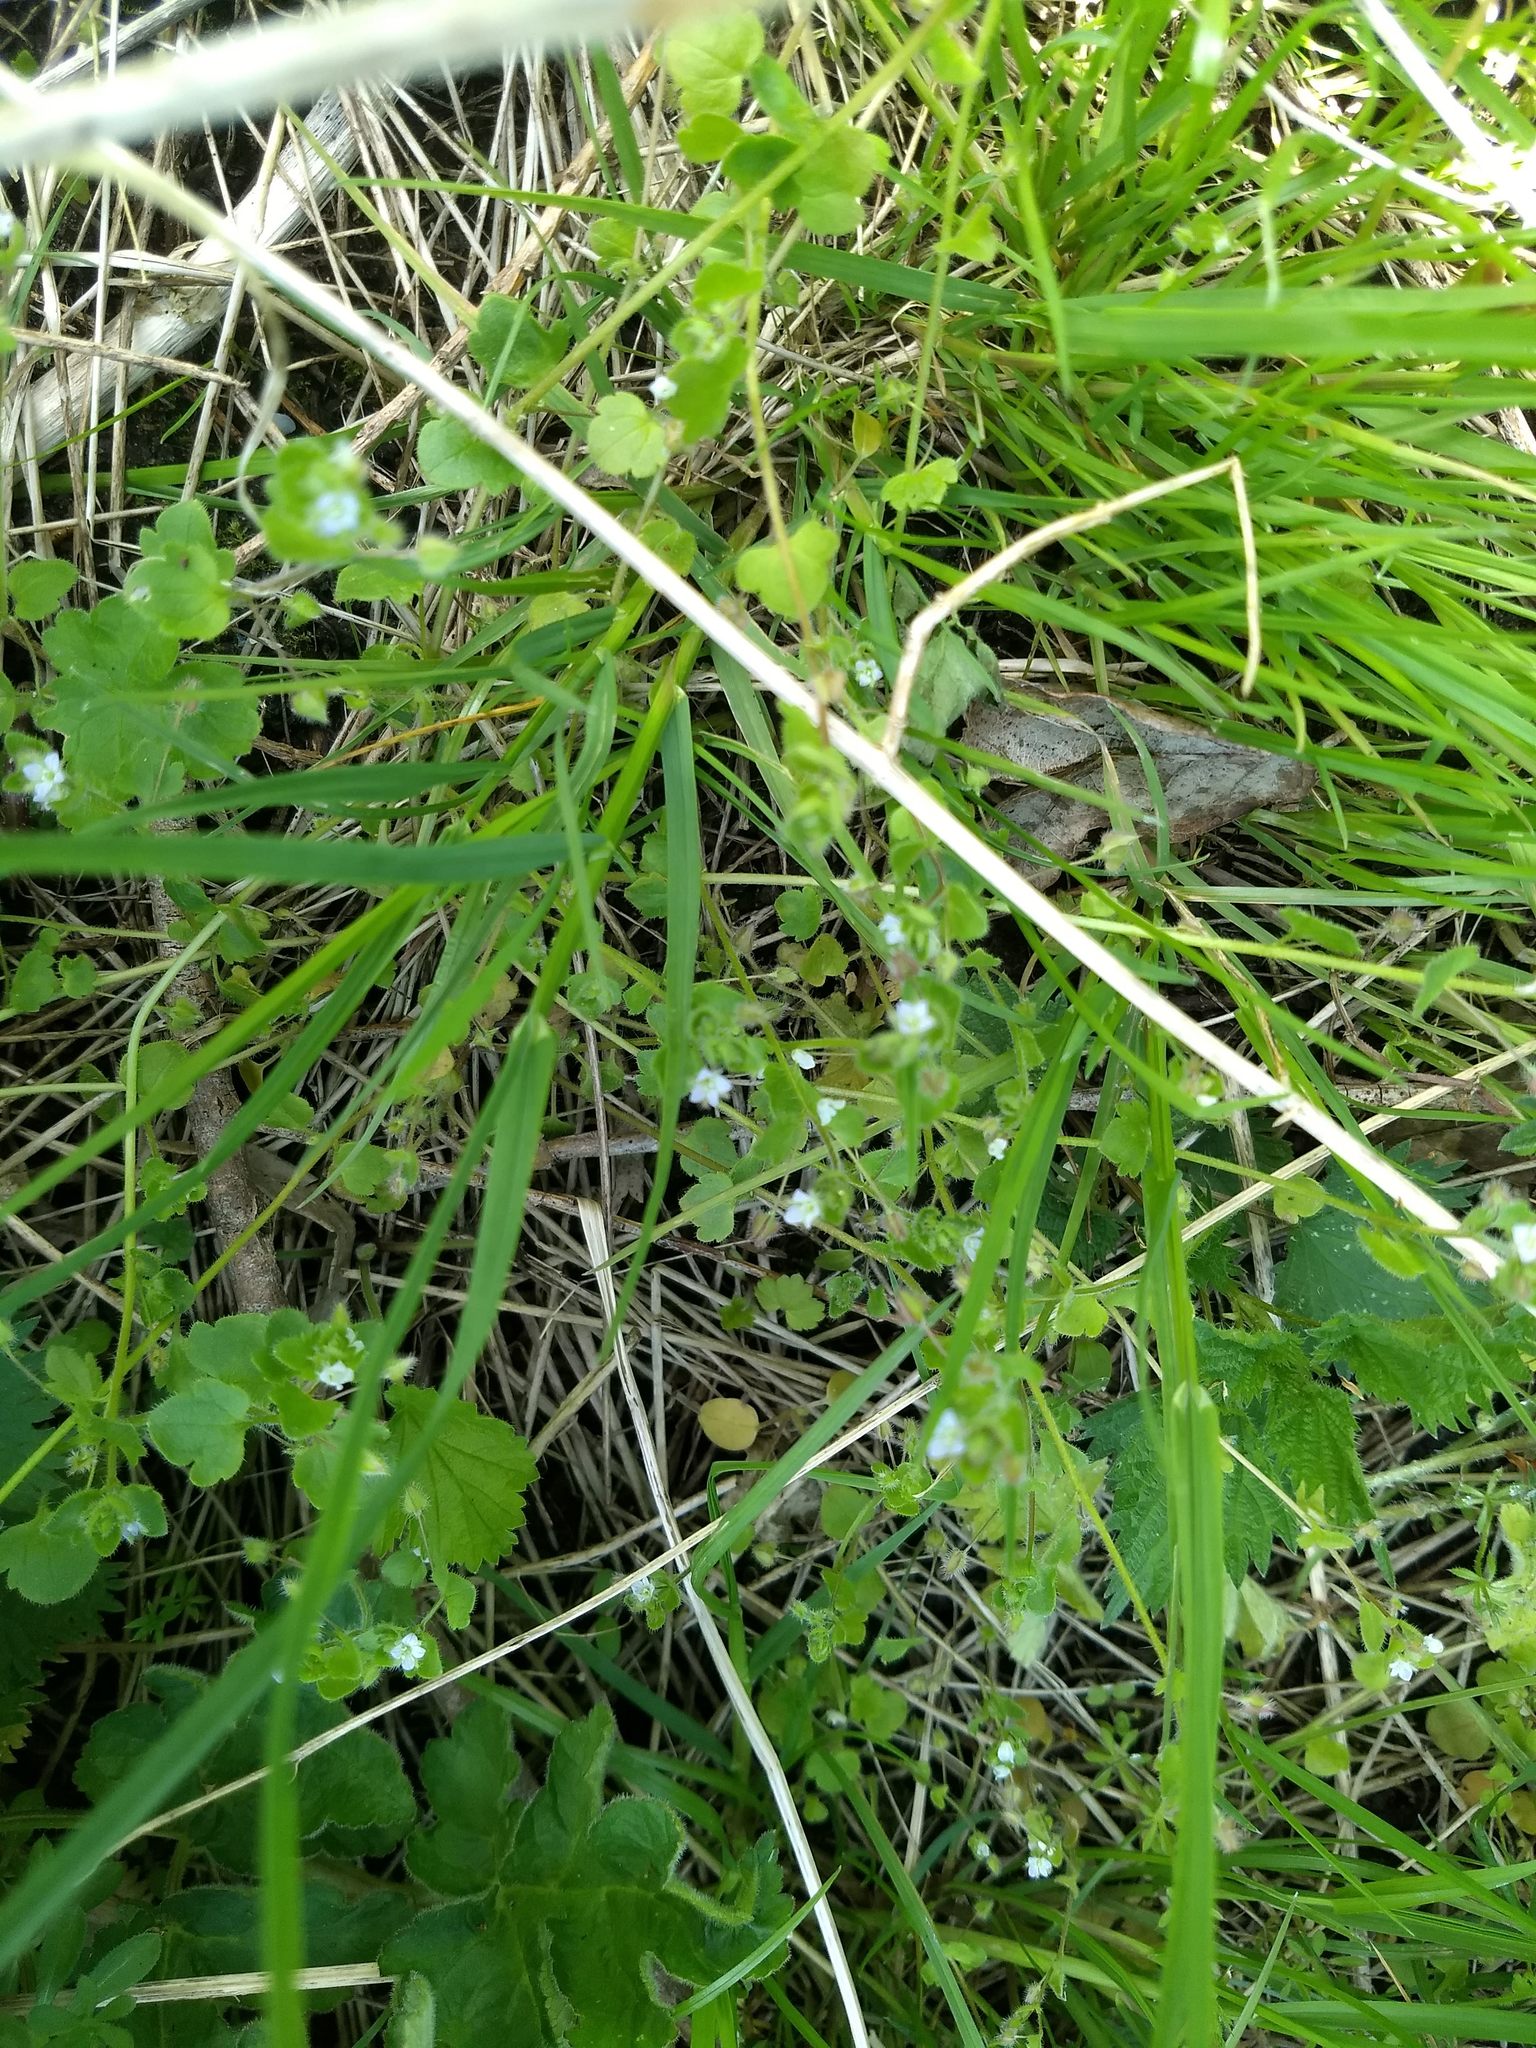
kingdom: Plantae
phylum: Tracheophyta
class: Magnoliopsida
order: Lamiales
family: Plantaginaceae
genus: Veronica
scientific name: Veronica hederifolia
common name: Ivy-leaved speedwell
